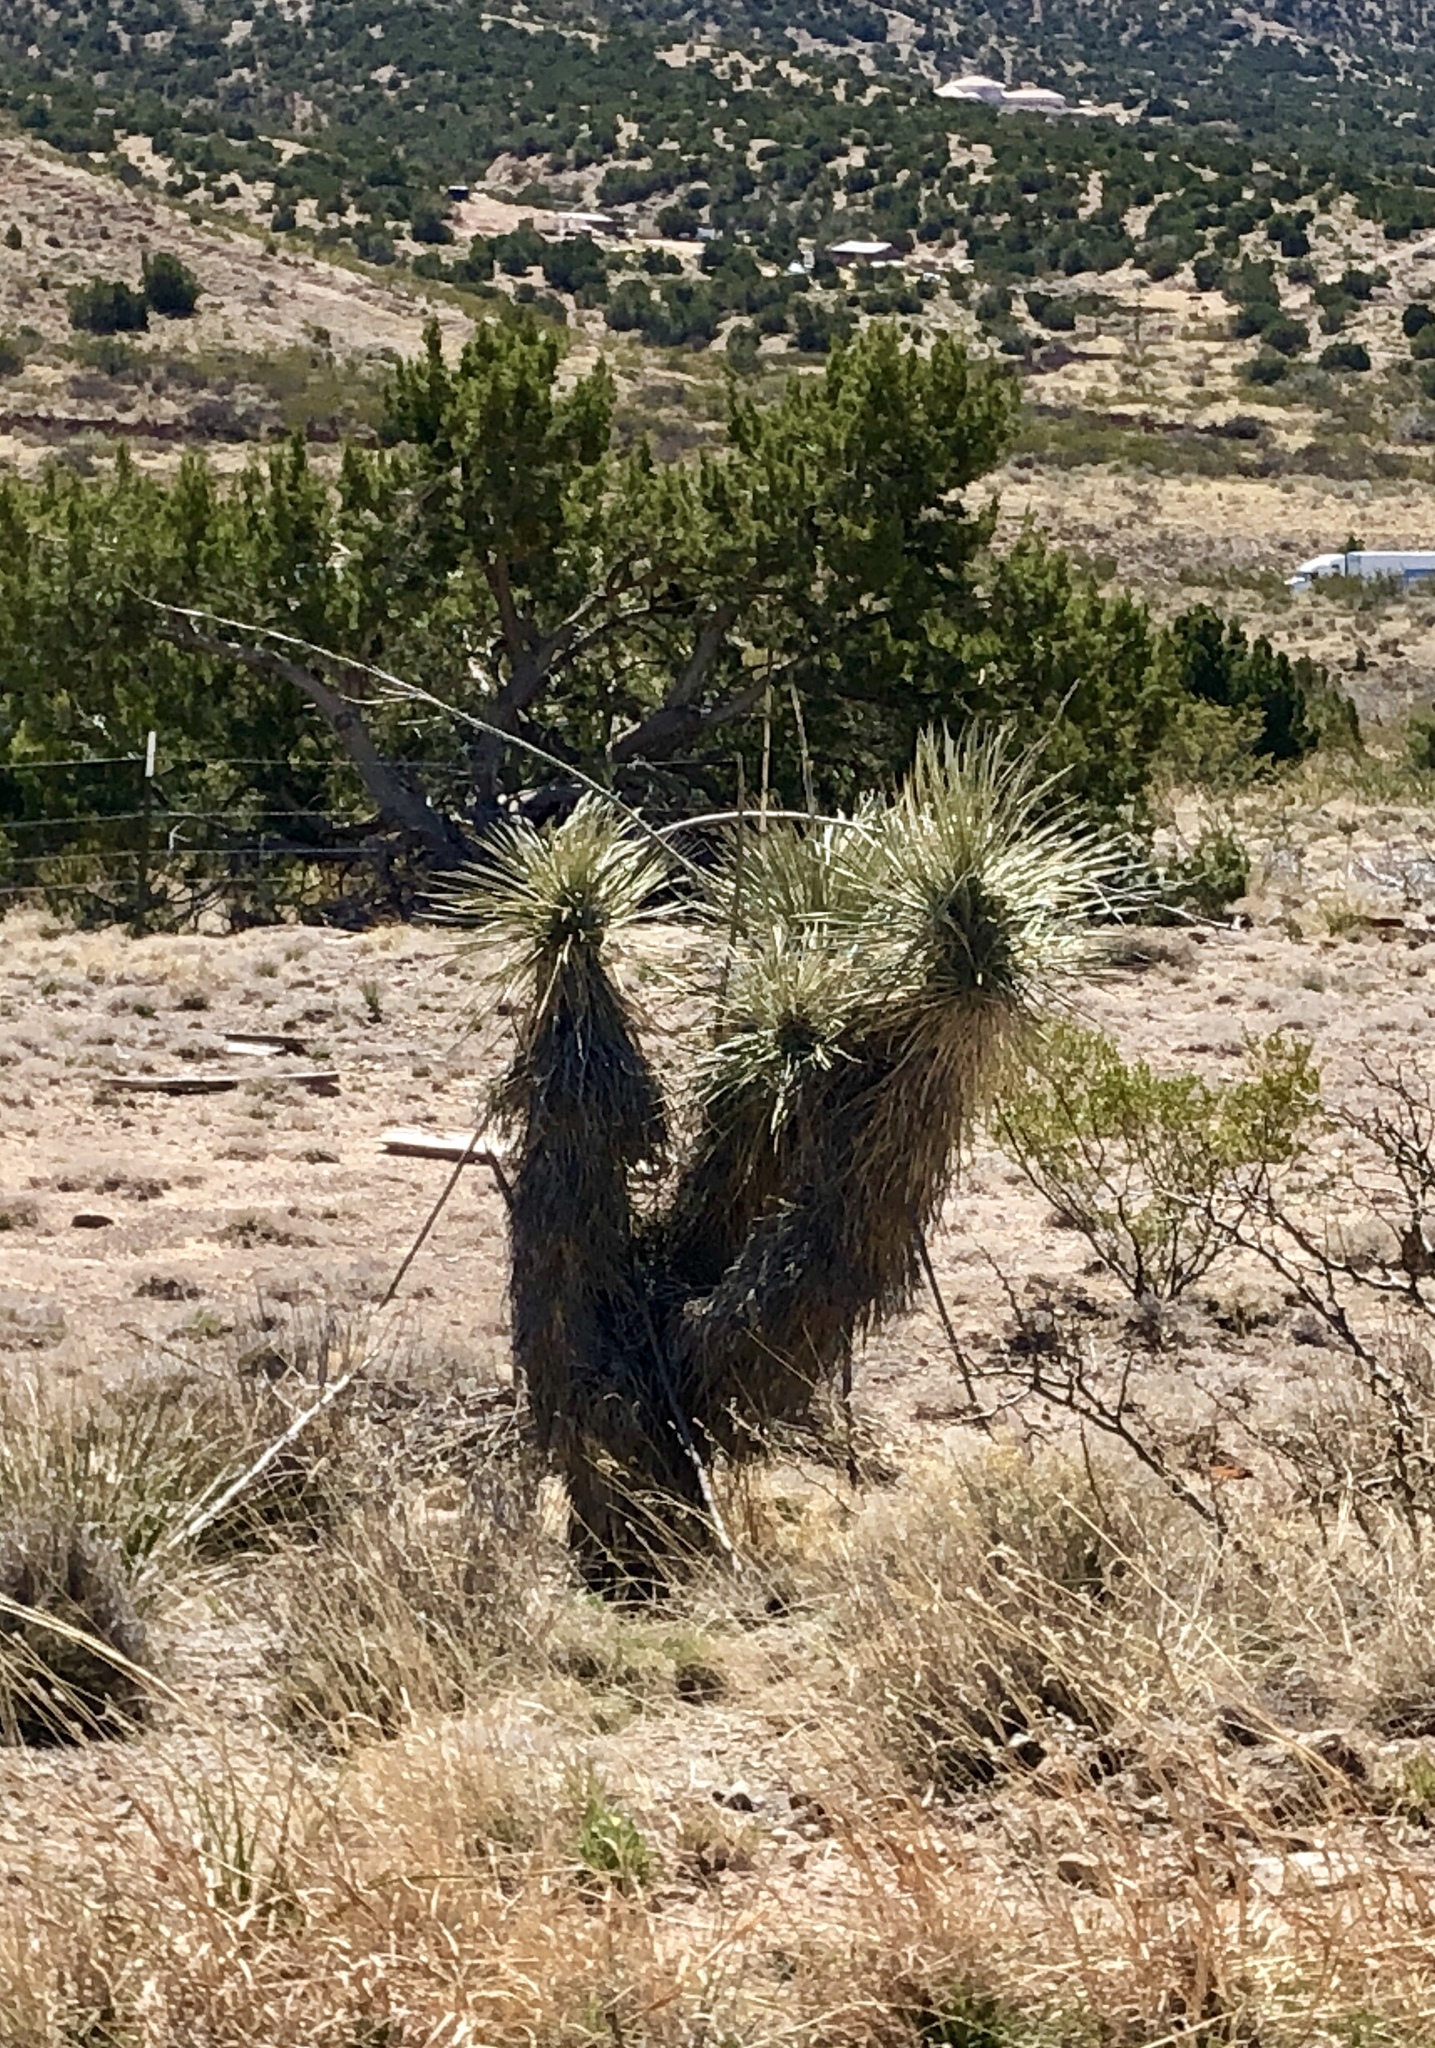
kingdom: Plantae
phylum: Tracheophyta
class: Liliopsida
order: Asparagales
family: Asparagaceae
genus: Yucca
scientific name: Yucca elata
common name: Palmella
